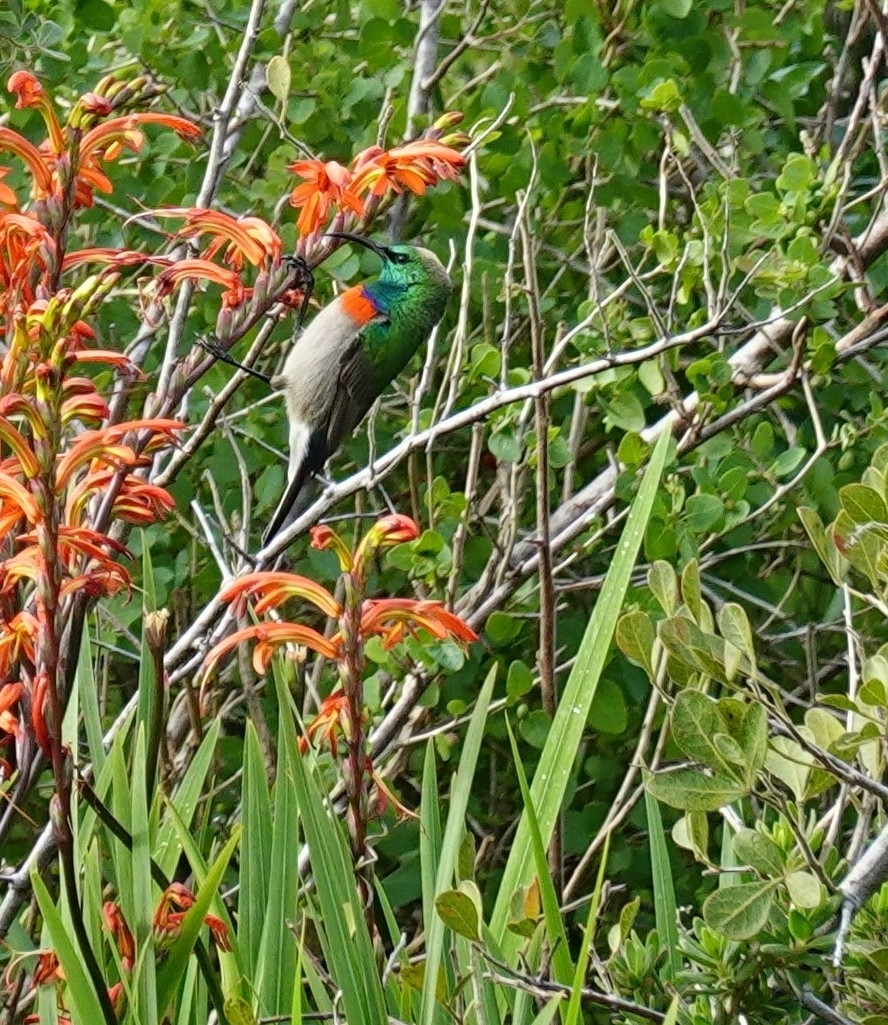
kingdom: Animalia
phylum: Chordata
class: Aves
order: Passeriformes
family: Nectariniidae
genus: Cinnyris
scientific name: Cinnyris chalybeus
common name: Southern double-collared sunbird
